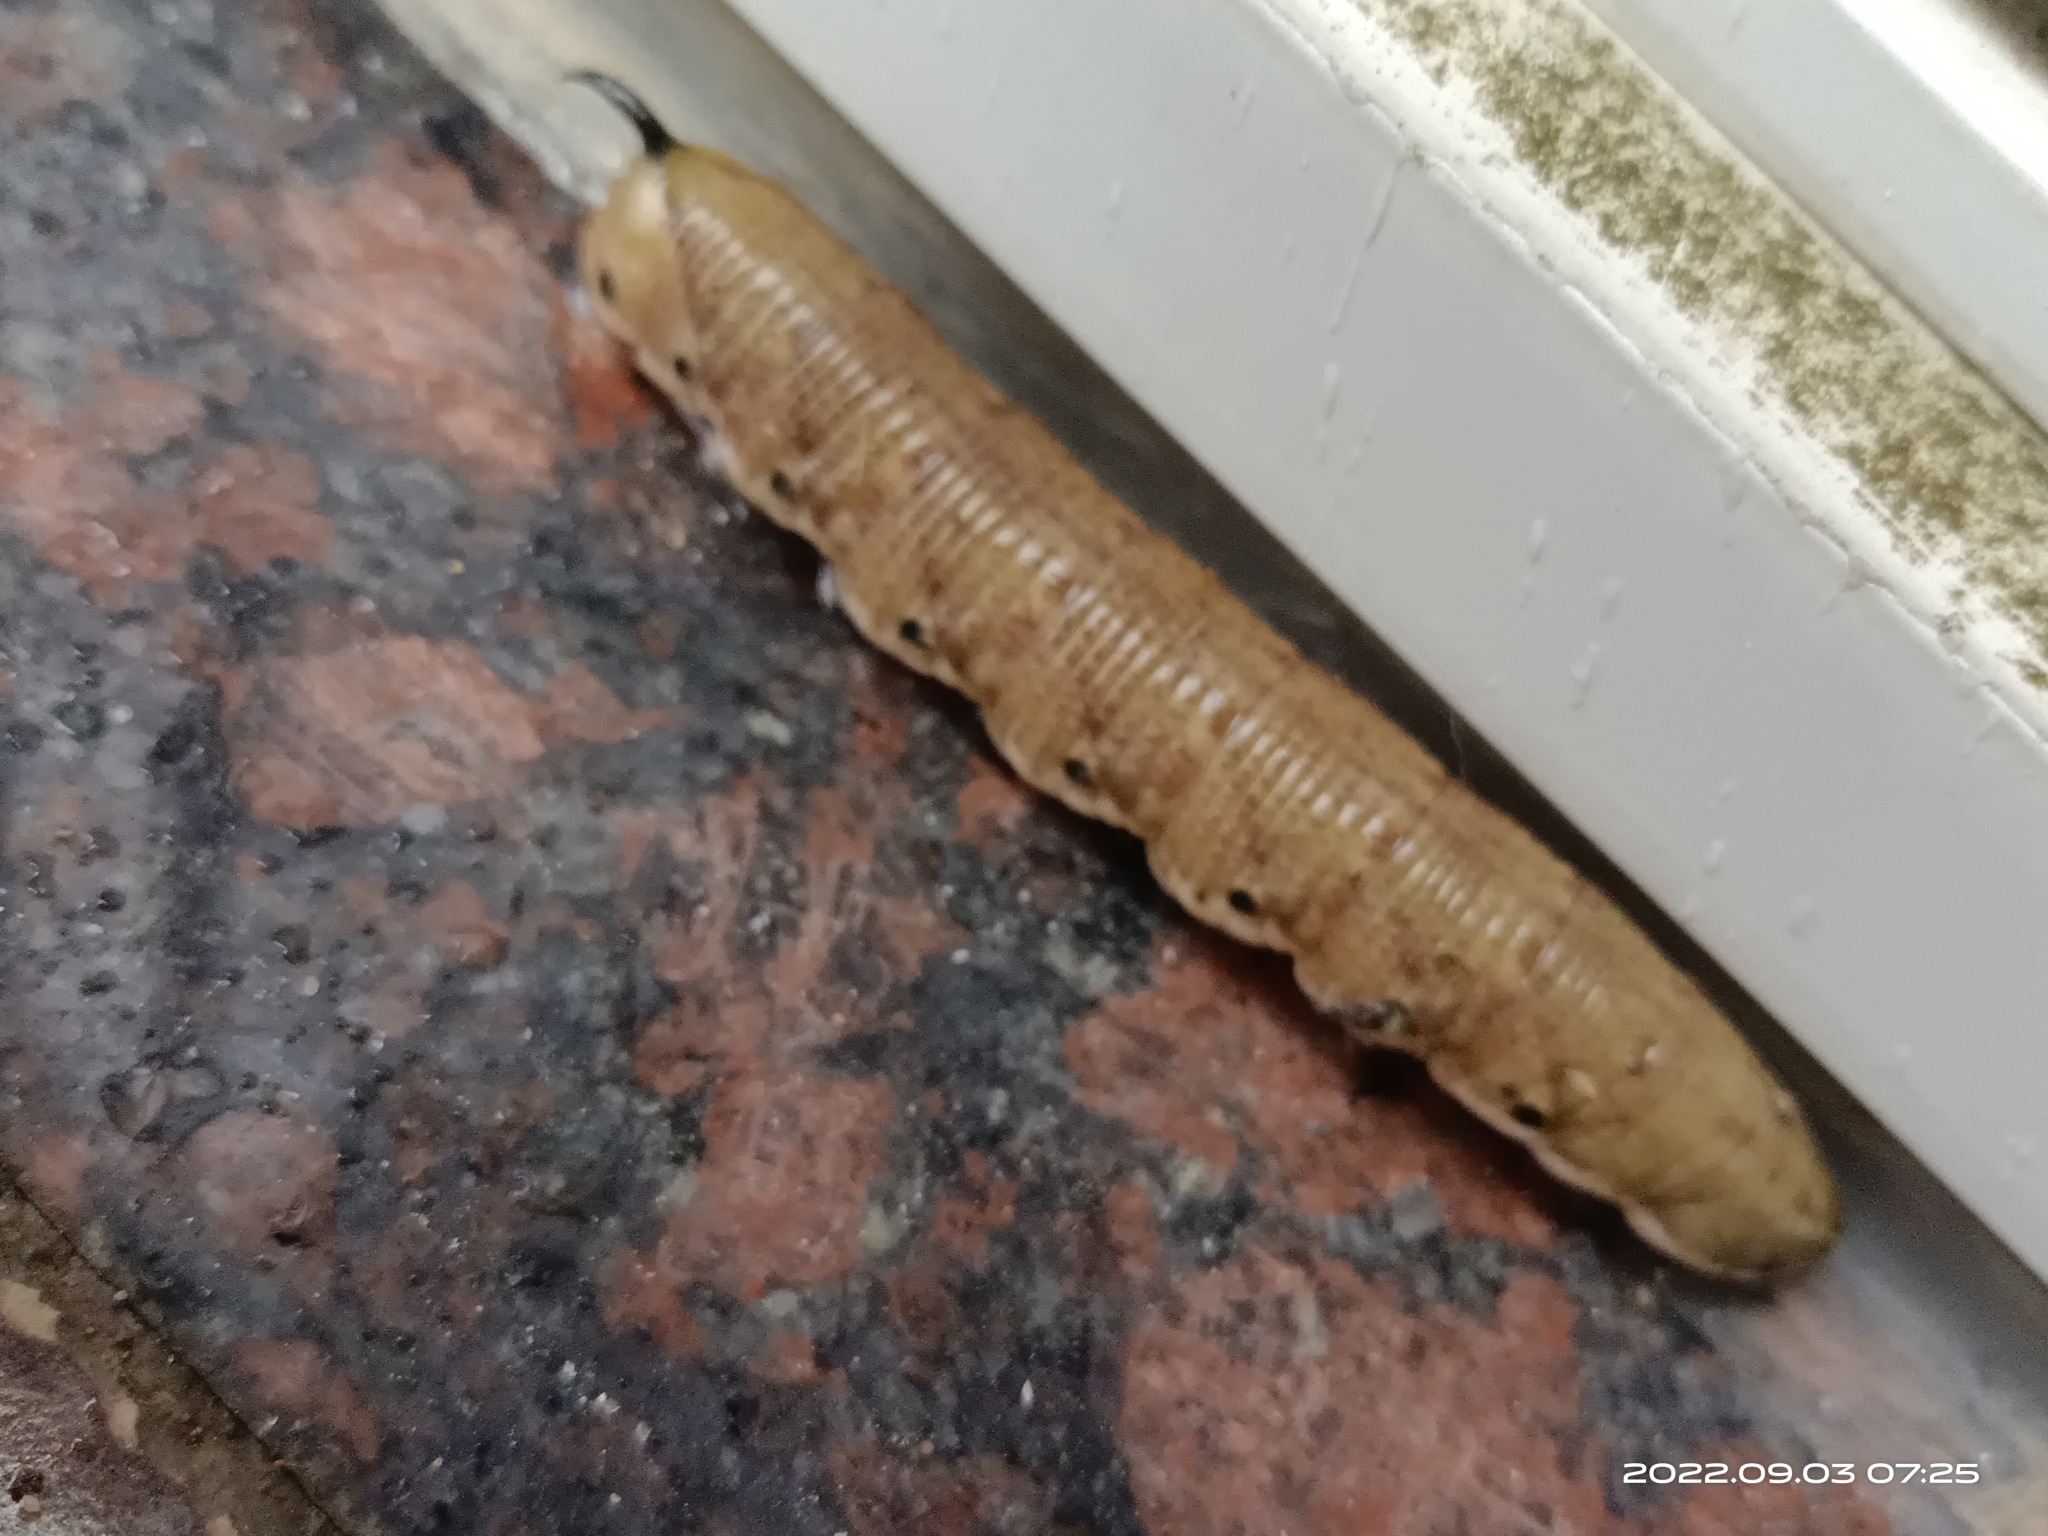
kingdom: Animalia
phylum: Arthropoda
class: Insecta
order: Lepidoptera
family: Sphingidae
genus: Agrius
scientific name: Agrius convolvuli
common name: Convolvulus hawkmoth
